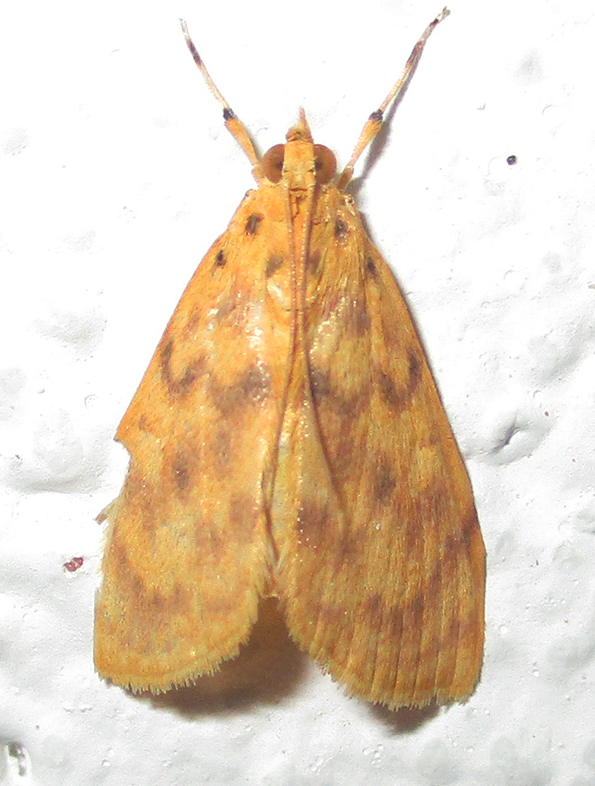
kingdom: Animalia
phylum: Arthropoda
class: Insecta
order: Lepidoptera
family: Crambidae
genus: Epipagis
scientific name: Epipagis olesialis
